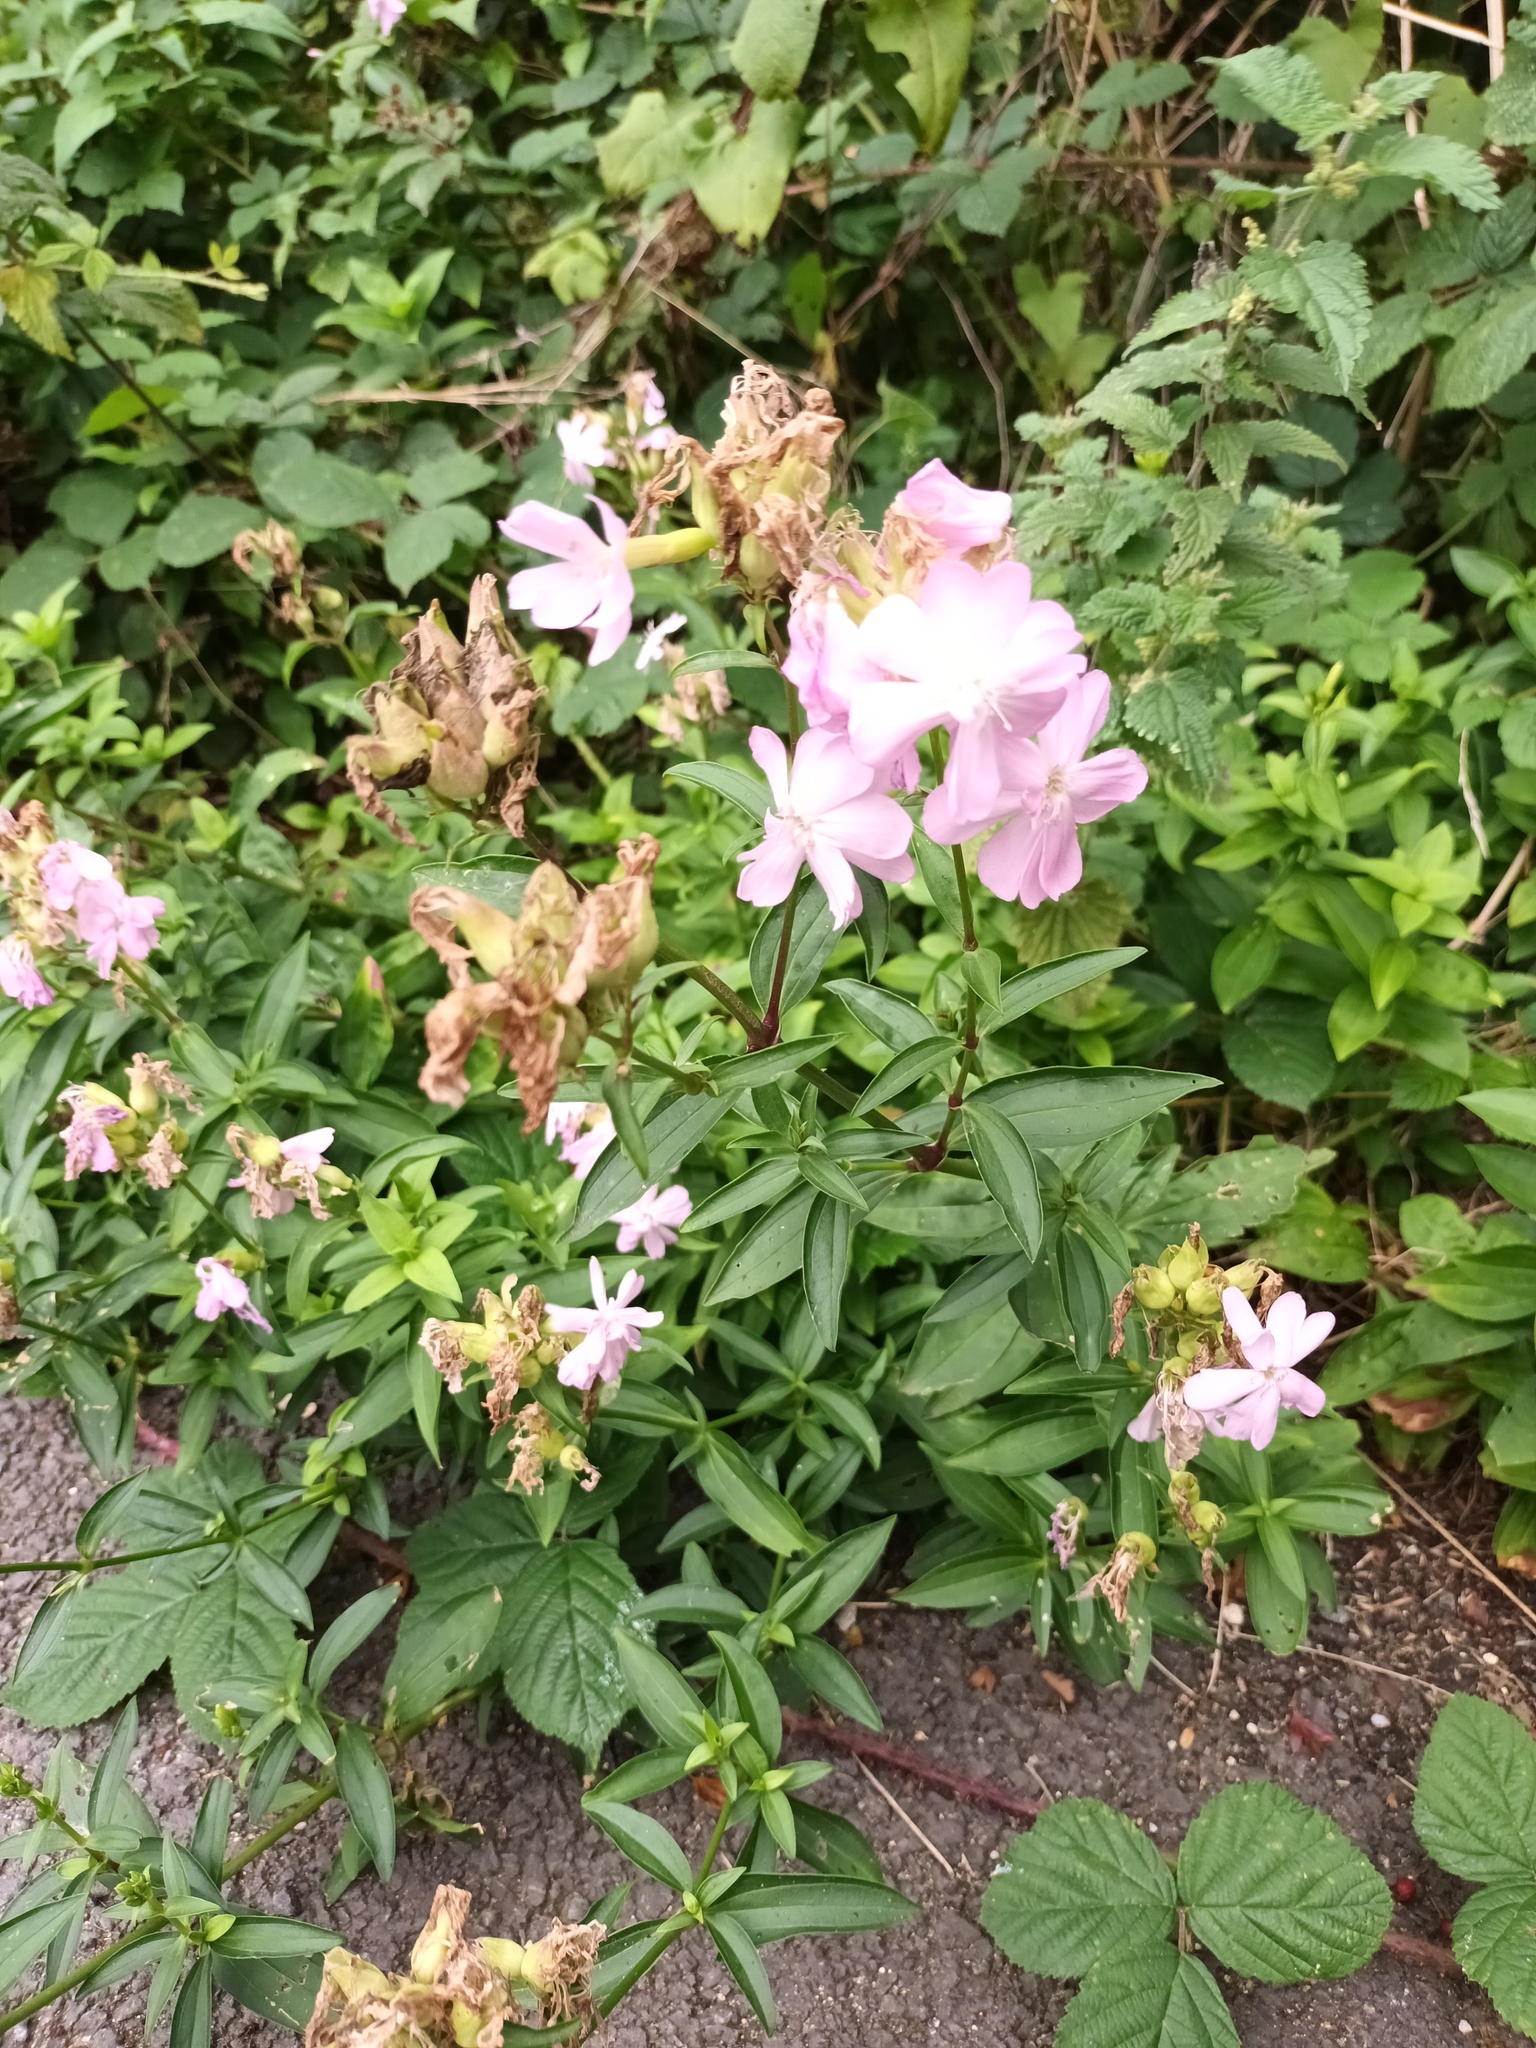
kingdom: Plantae
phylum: Tracheophyta
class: Magnoliopsida
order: Caryophyllales
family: Caryophyllaceae
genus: Saponaria
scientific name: Saponaria officinalis
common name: Soapwort
